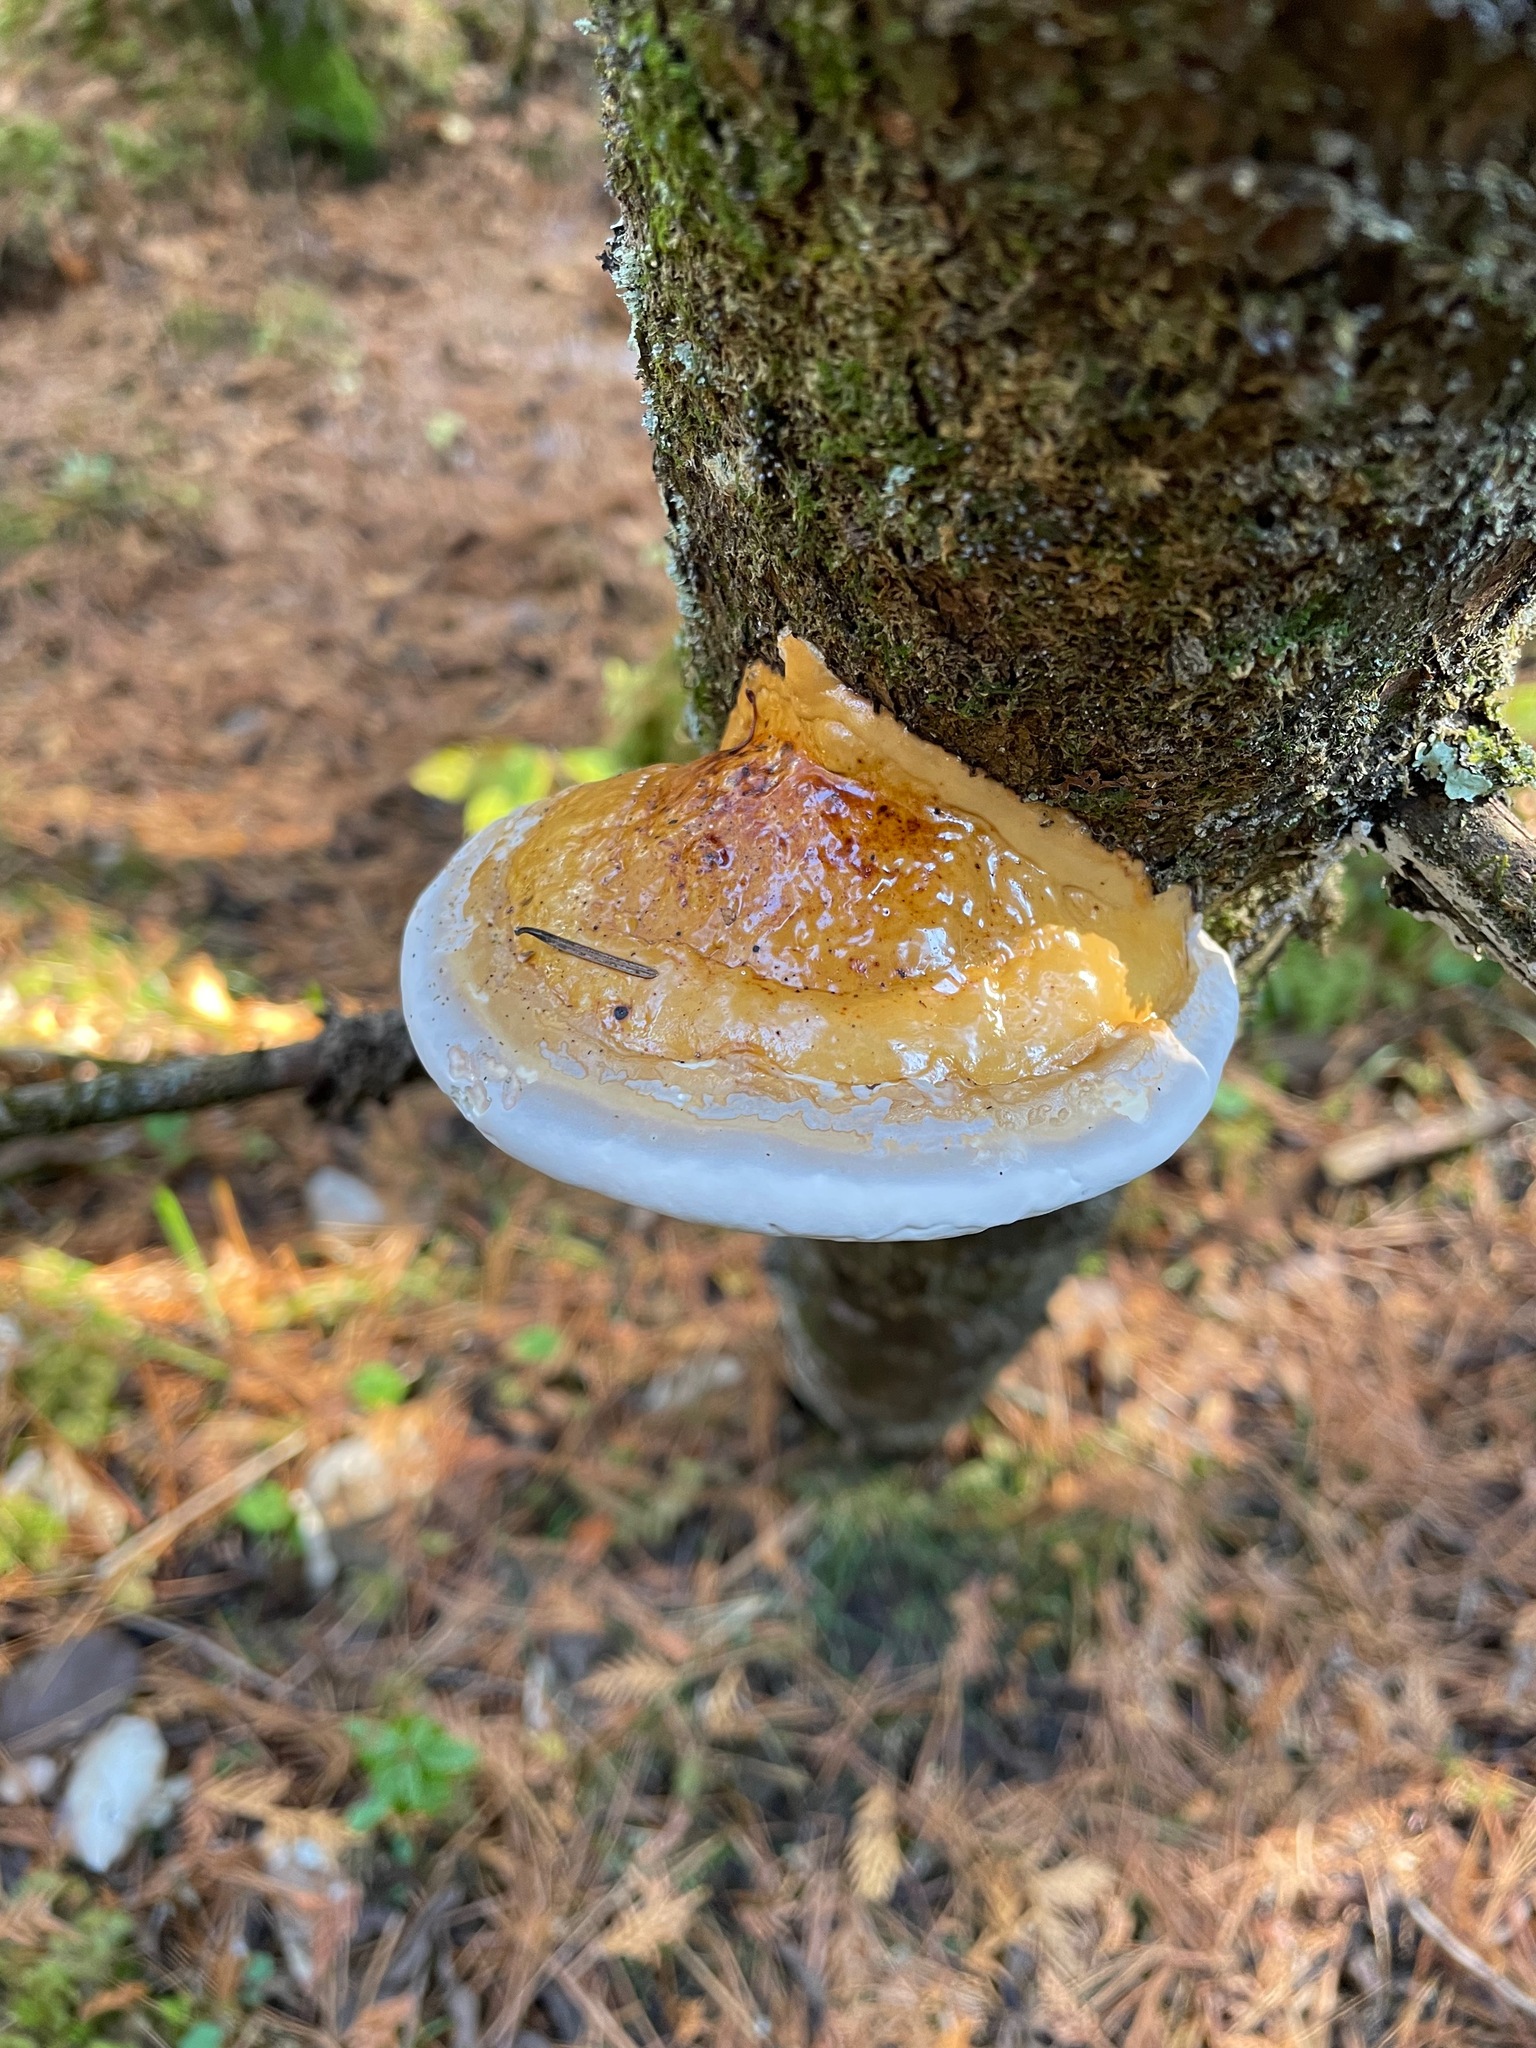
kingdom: Fungi
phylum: Basidiomycota
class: Agaricomycetes
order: Polyporales
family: Fomitopsidaceae
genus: Fomitopsis
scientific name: Fomitopsis mounceae
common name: Northern red belt
